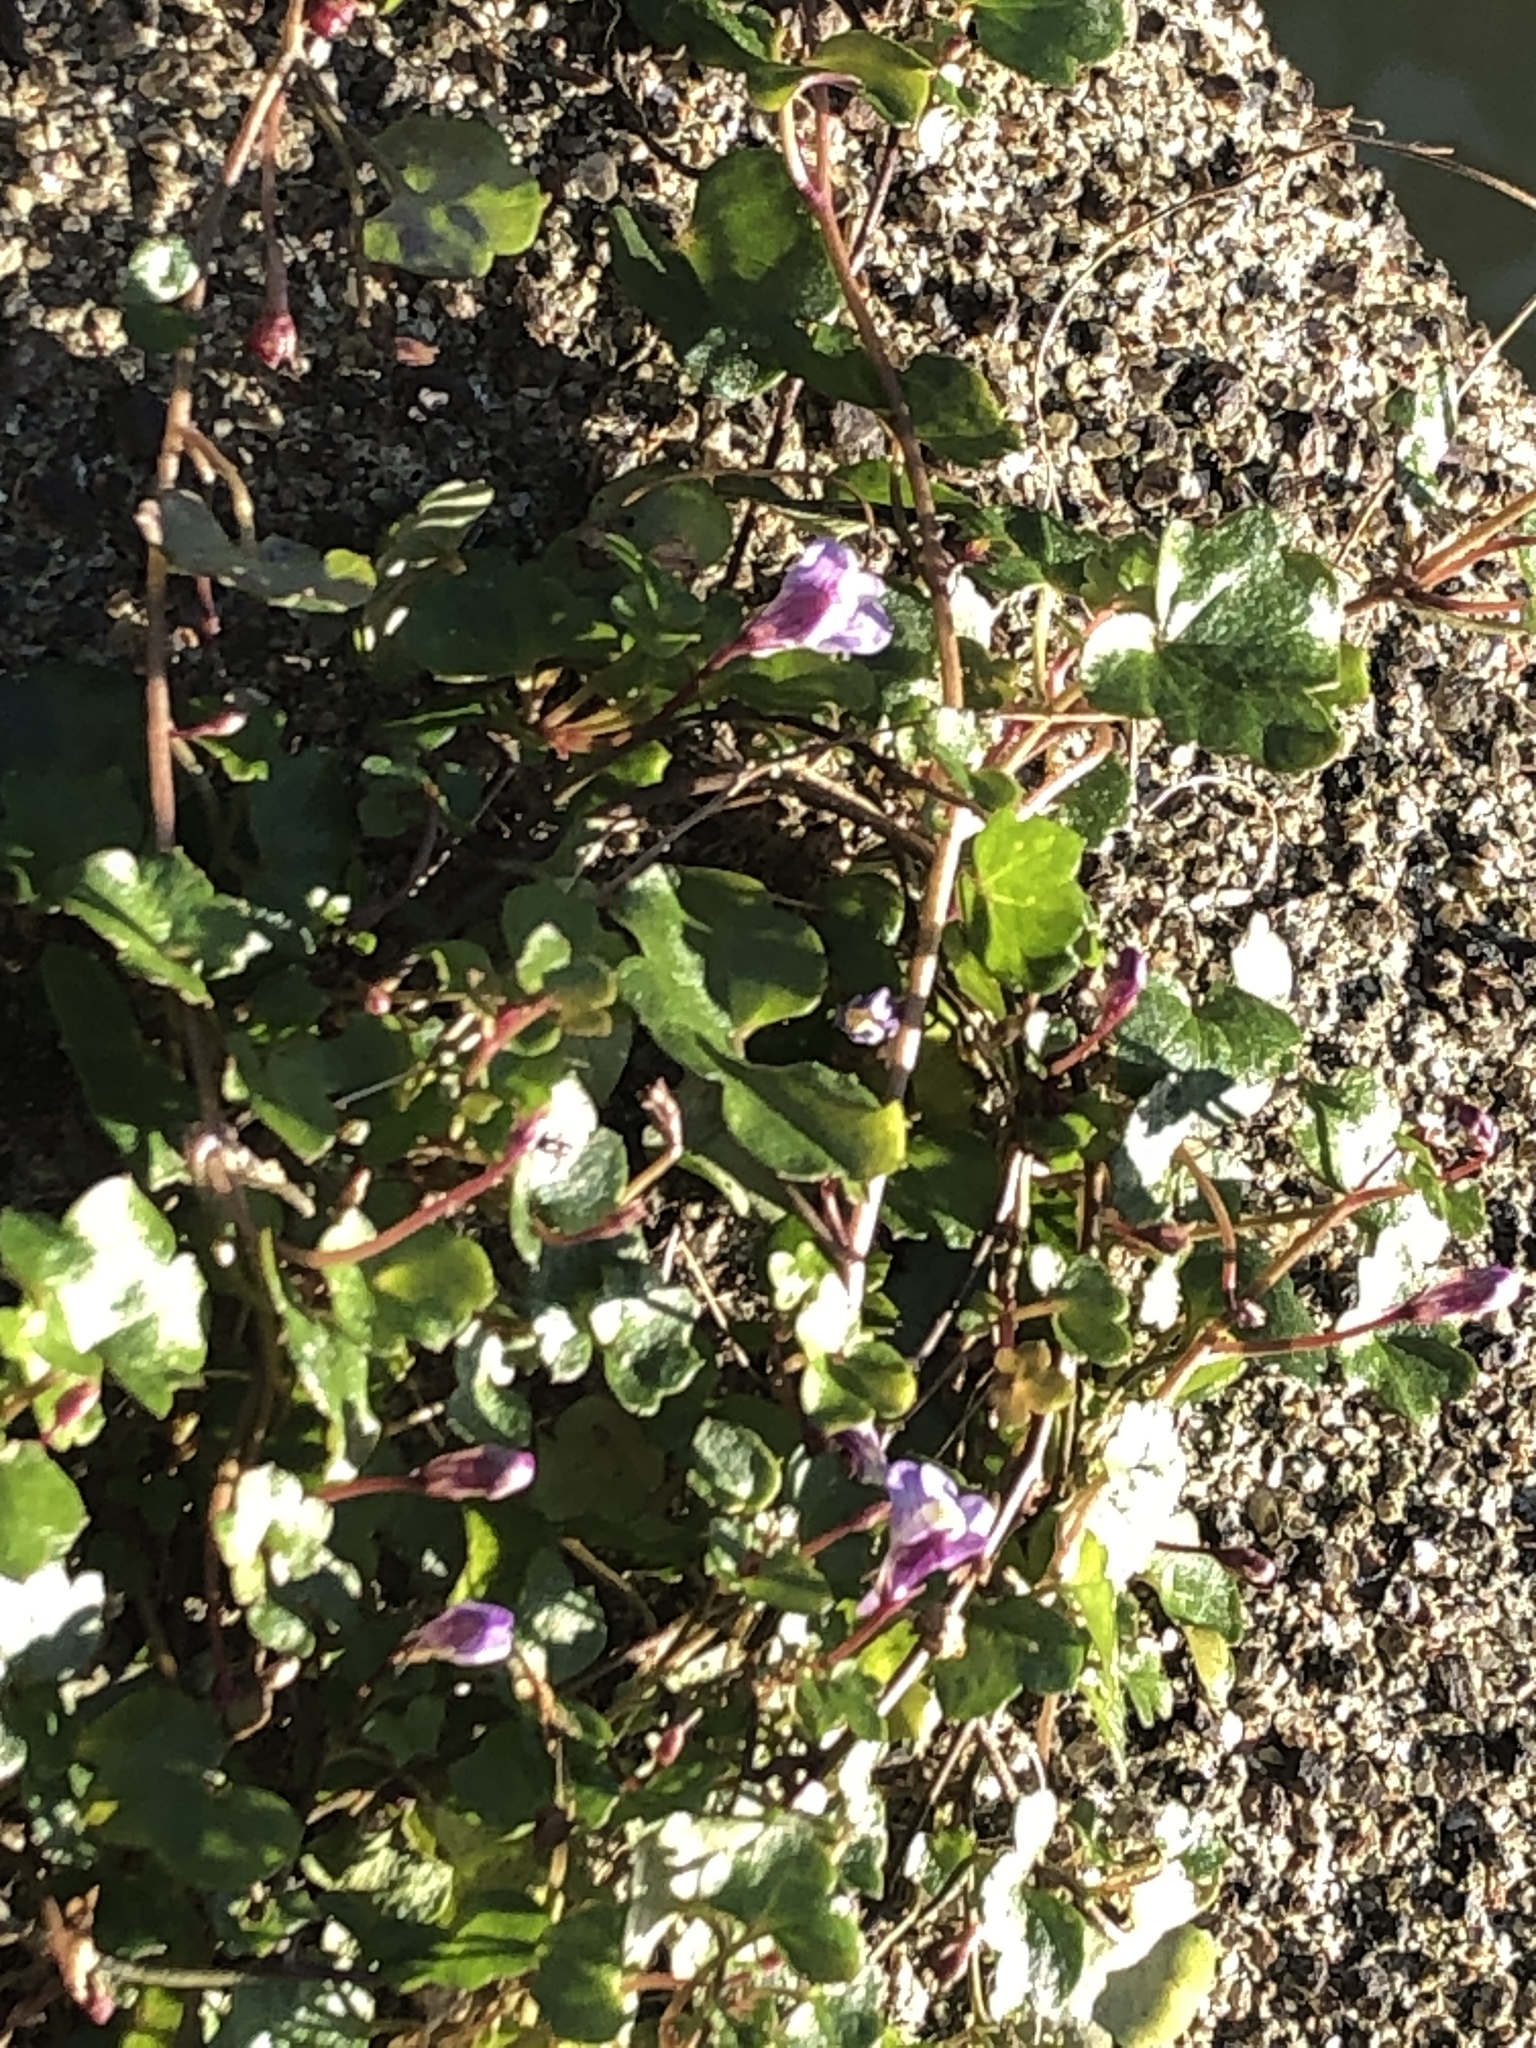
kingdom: Plantae
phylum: Tracheophyta
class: Magnoliopsida
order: Lamiales
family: Plantaginaceae
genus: Cymbalaria
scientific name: Cymbalaria muralis
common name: Ivy-leaved toadflax
